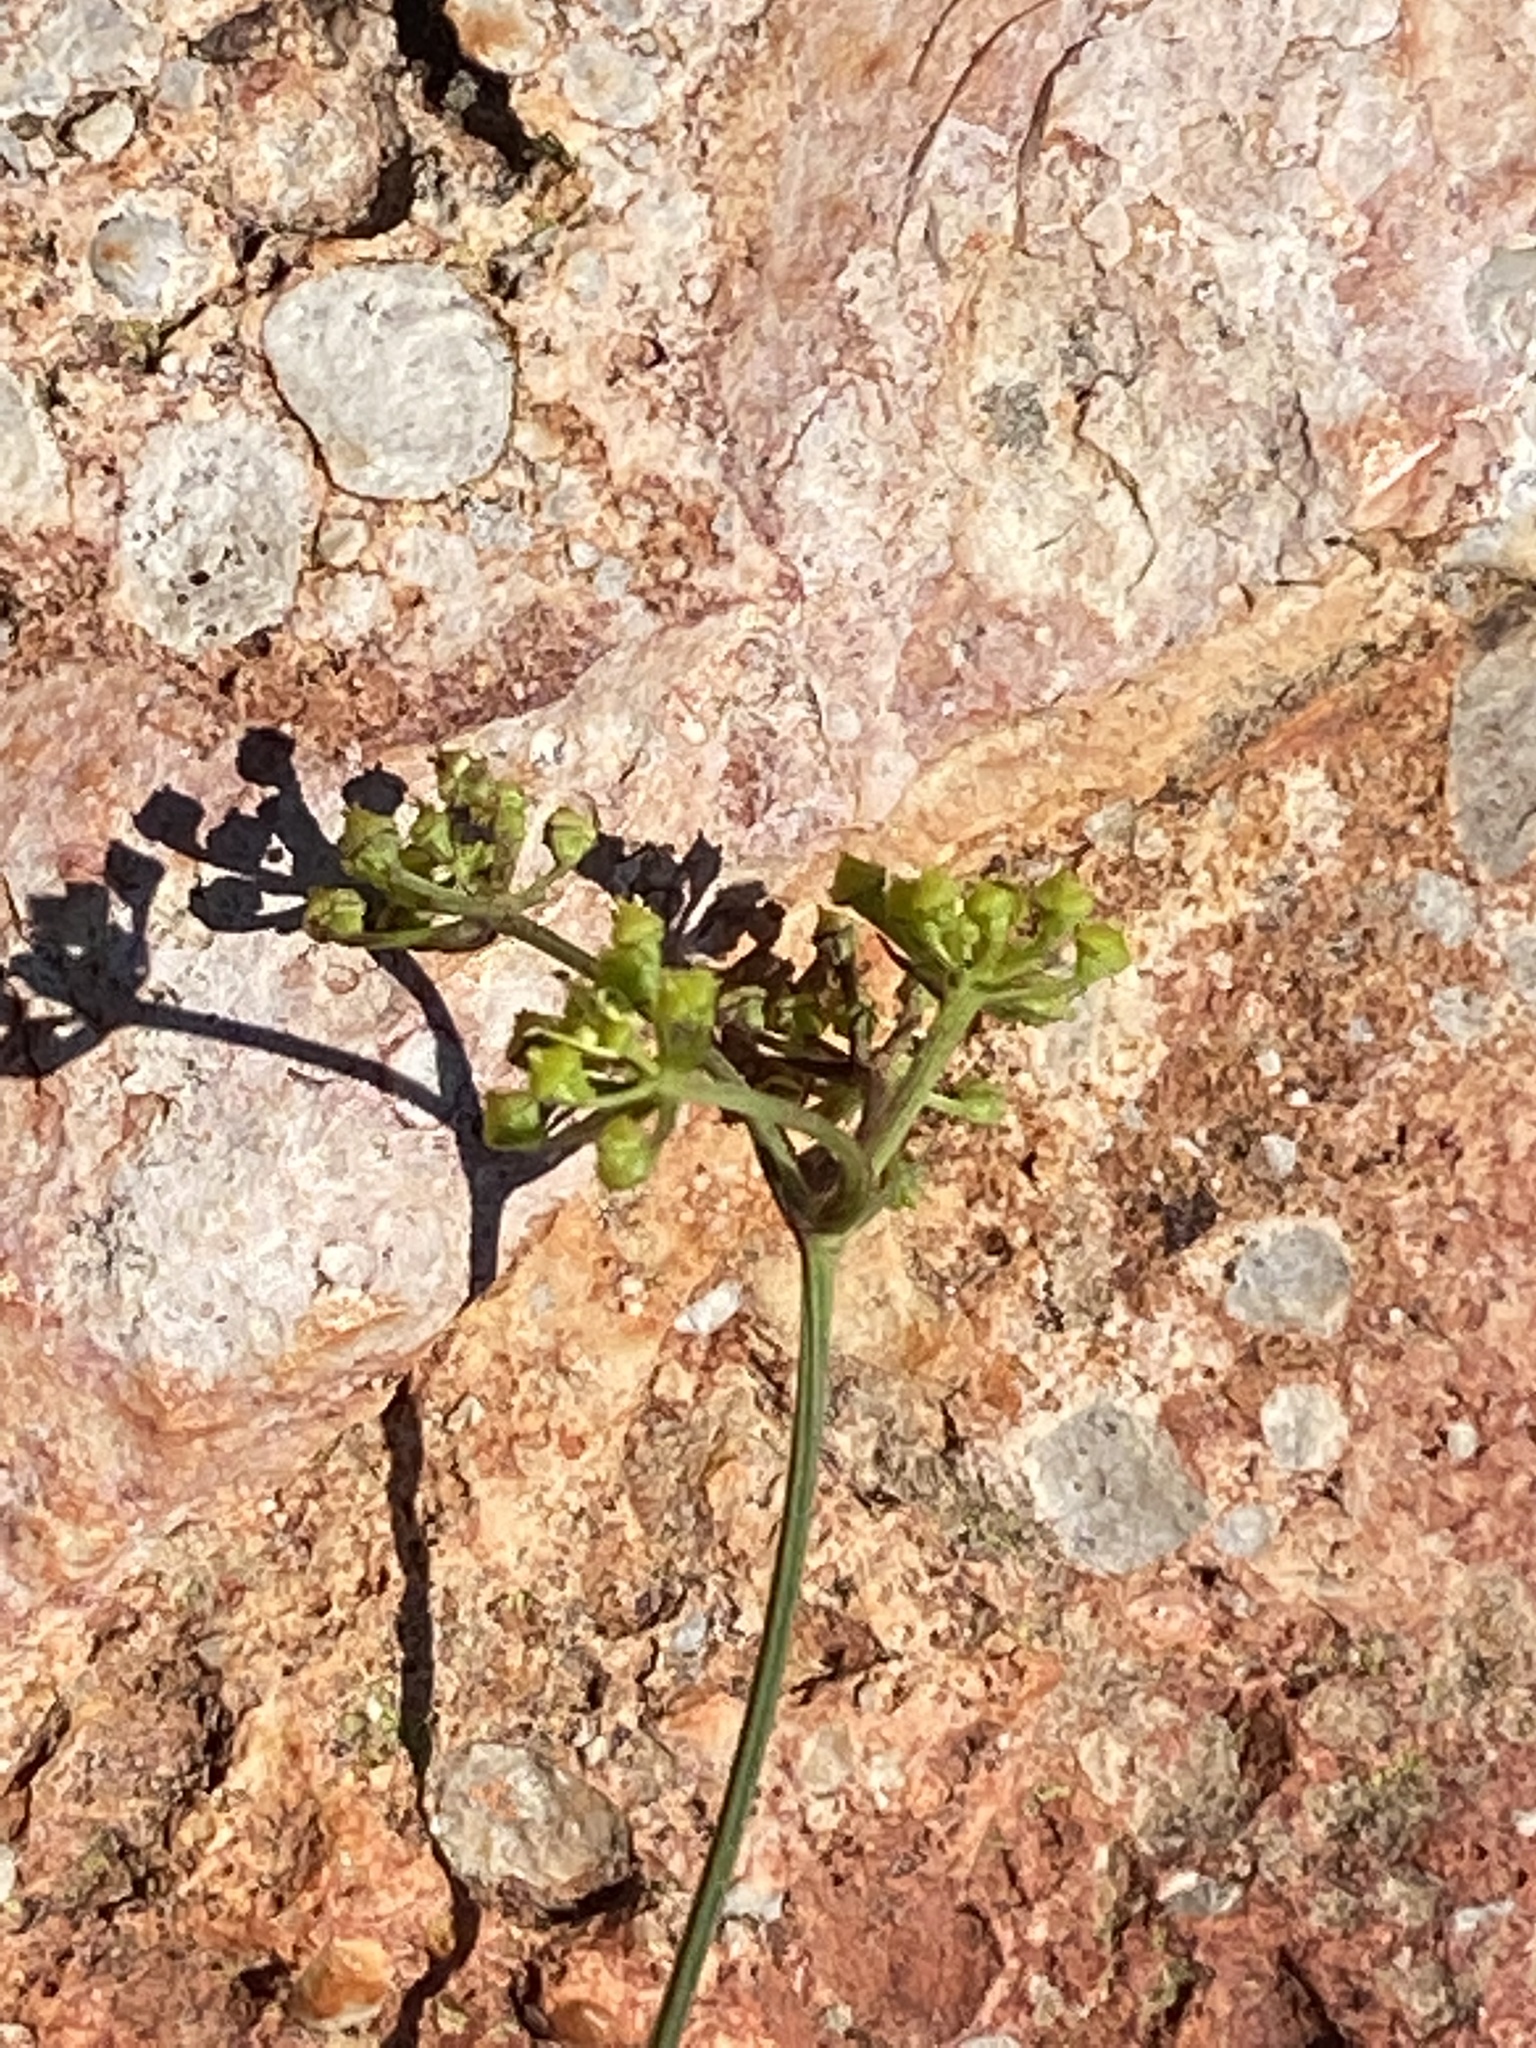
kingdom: Plantae
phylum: Tracheophyta
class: Magnoliopsida
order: Apiales
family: Apiaceae
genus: Notobubon
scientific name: Notobubon collinum
